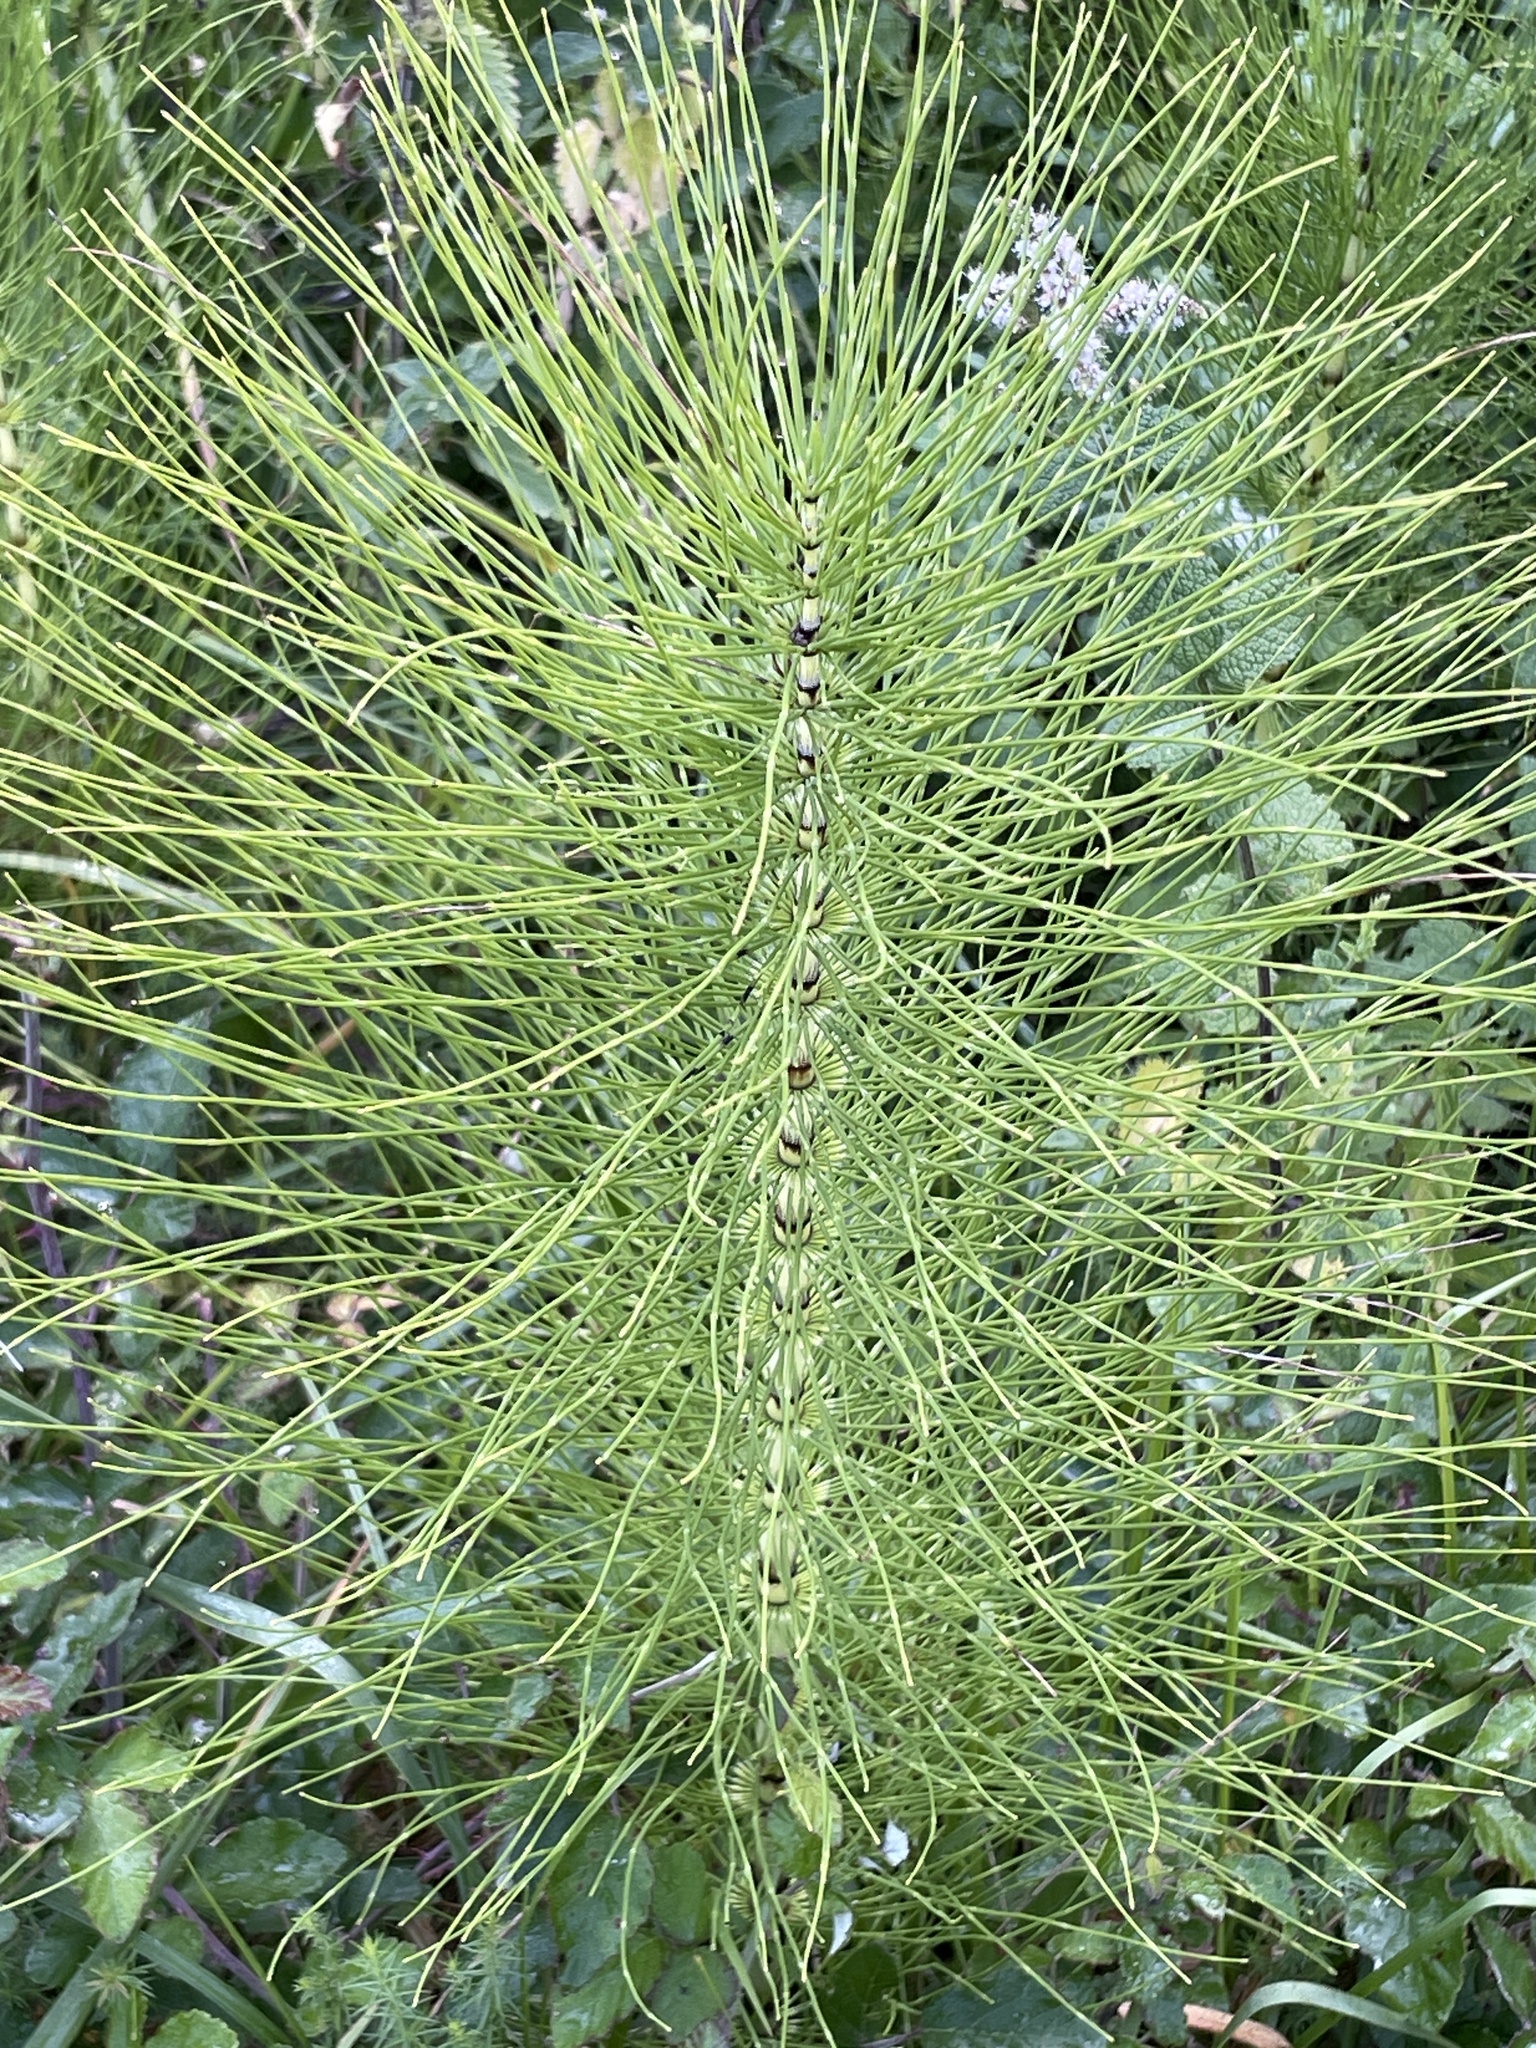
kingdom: Plantae
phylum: Tracheophyta
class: Polypodiopsida
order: Equisetales
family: Equisetaceae
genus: Equisetum
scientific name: Equisetum telmateia
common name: Great horsetail
